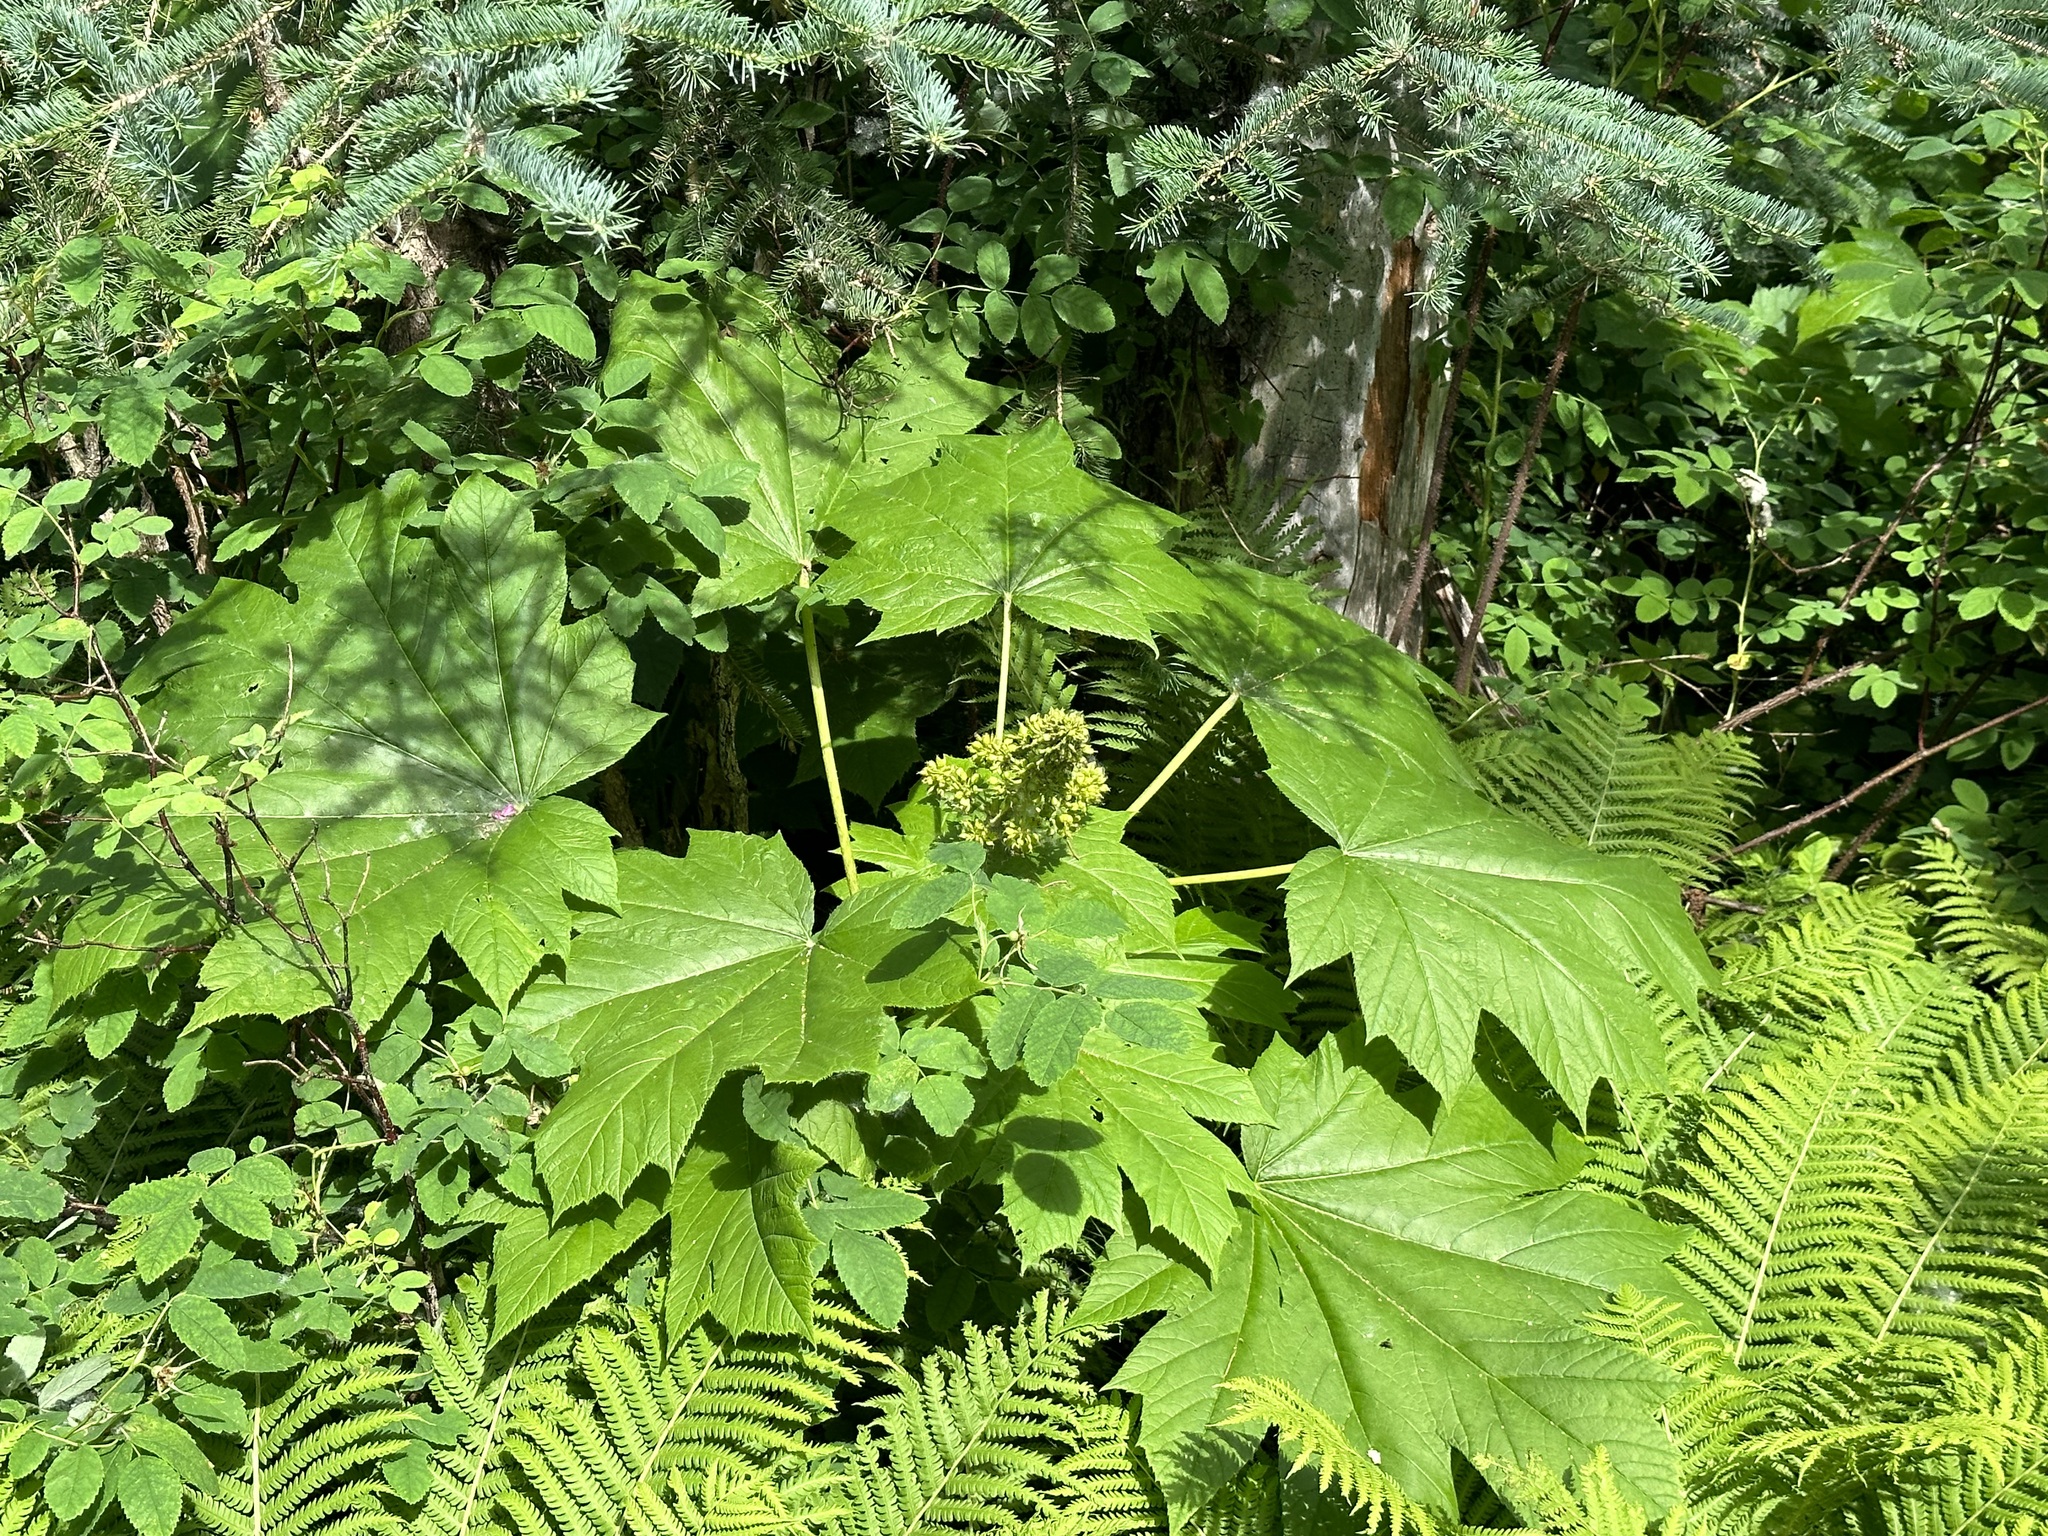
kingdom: Plantae
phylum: Tracheophyta
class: Magnoliopsida
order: Apiales
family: Araliaceae
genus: Oplopanax
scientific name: Oplopanax horridus
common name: Devil's walking-stick
